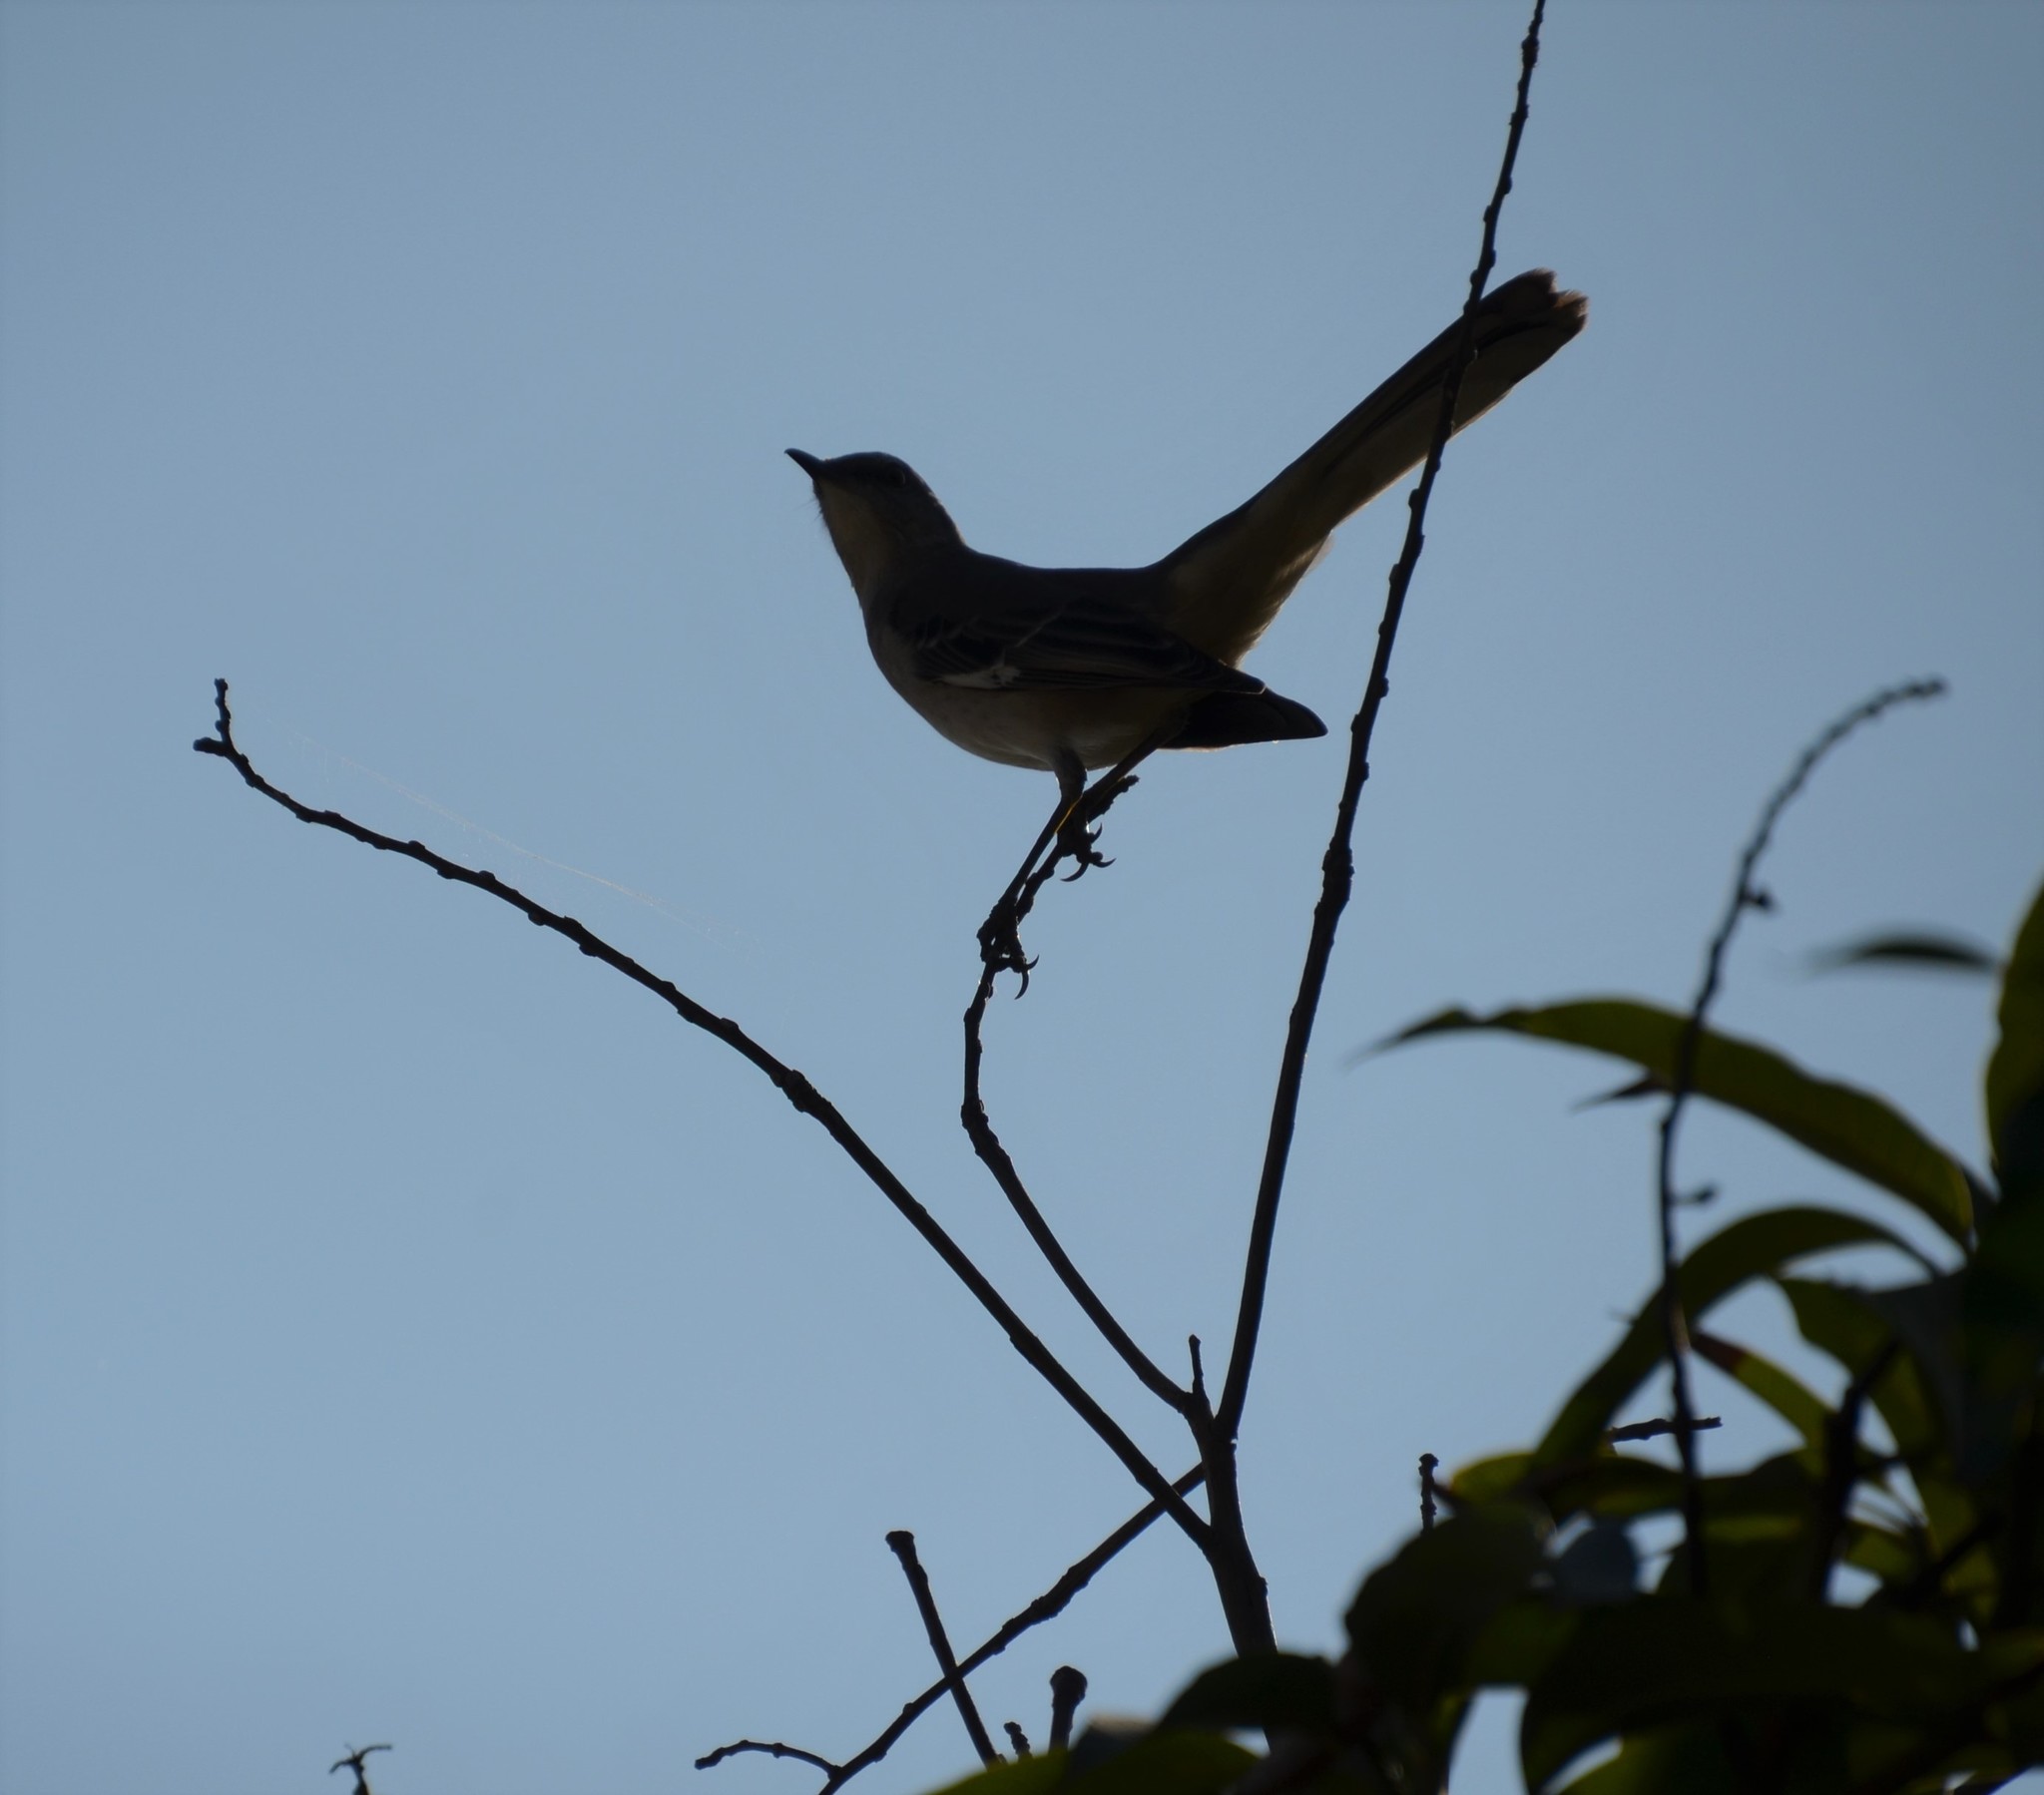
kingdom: Animalia
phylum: Chordata
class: Aves
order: Passeriformes
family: Mimidae
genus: Mimus
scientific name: Mimus polyglottos
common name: Northern mockingbird
